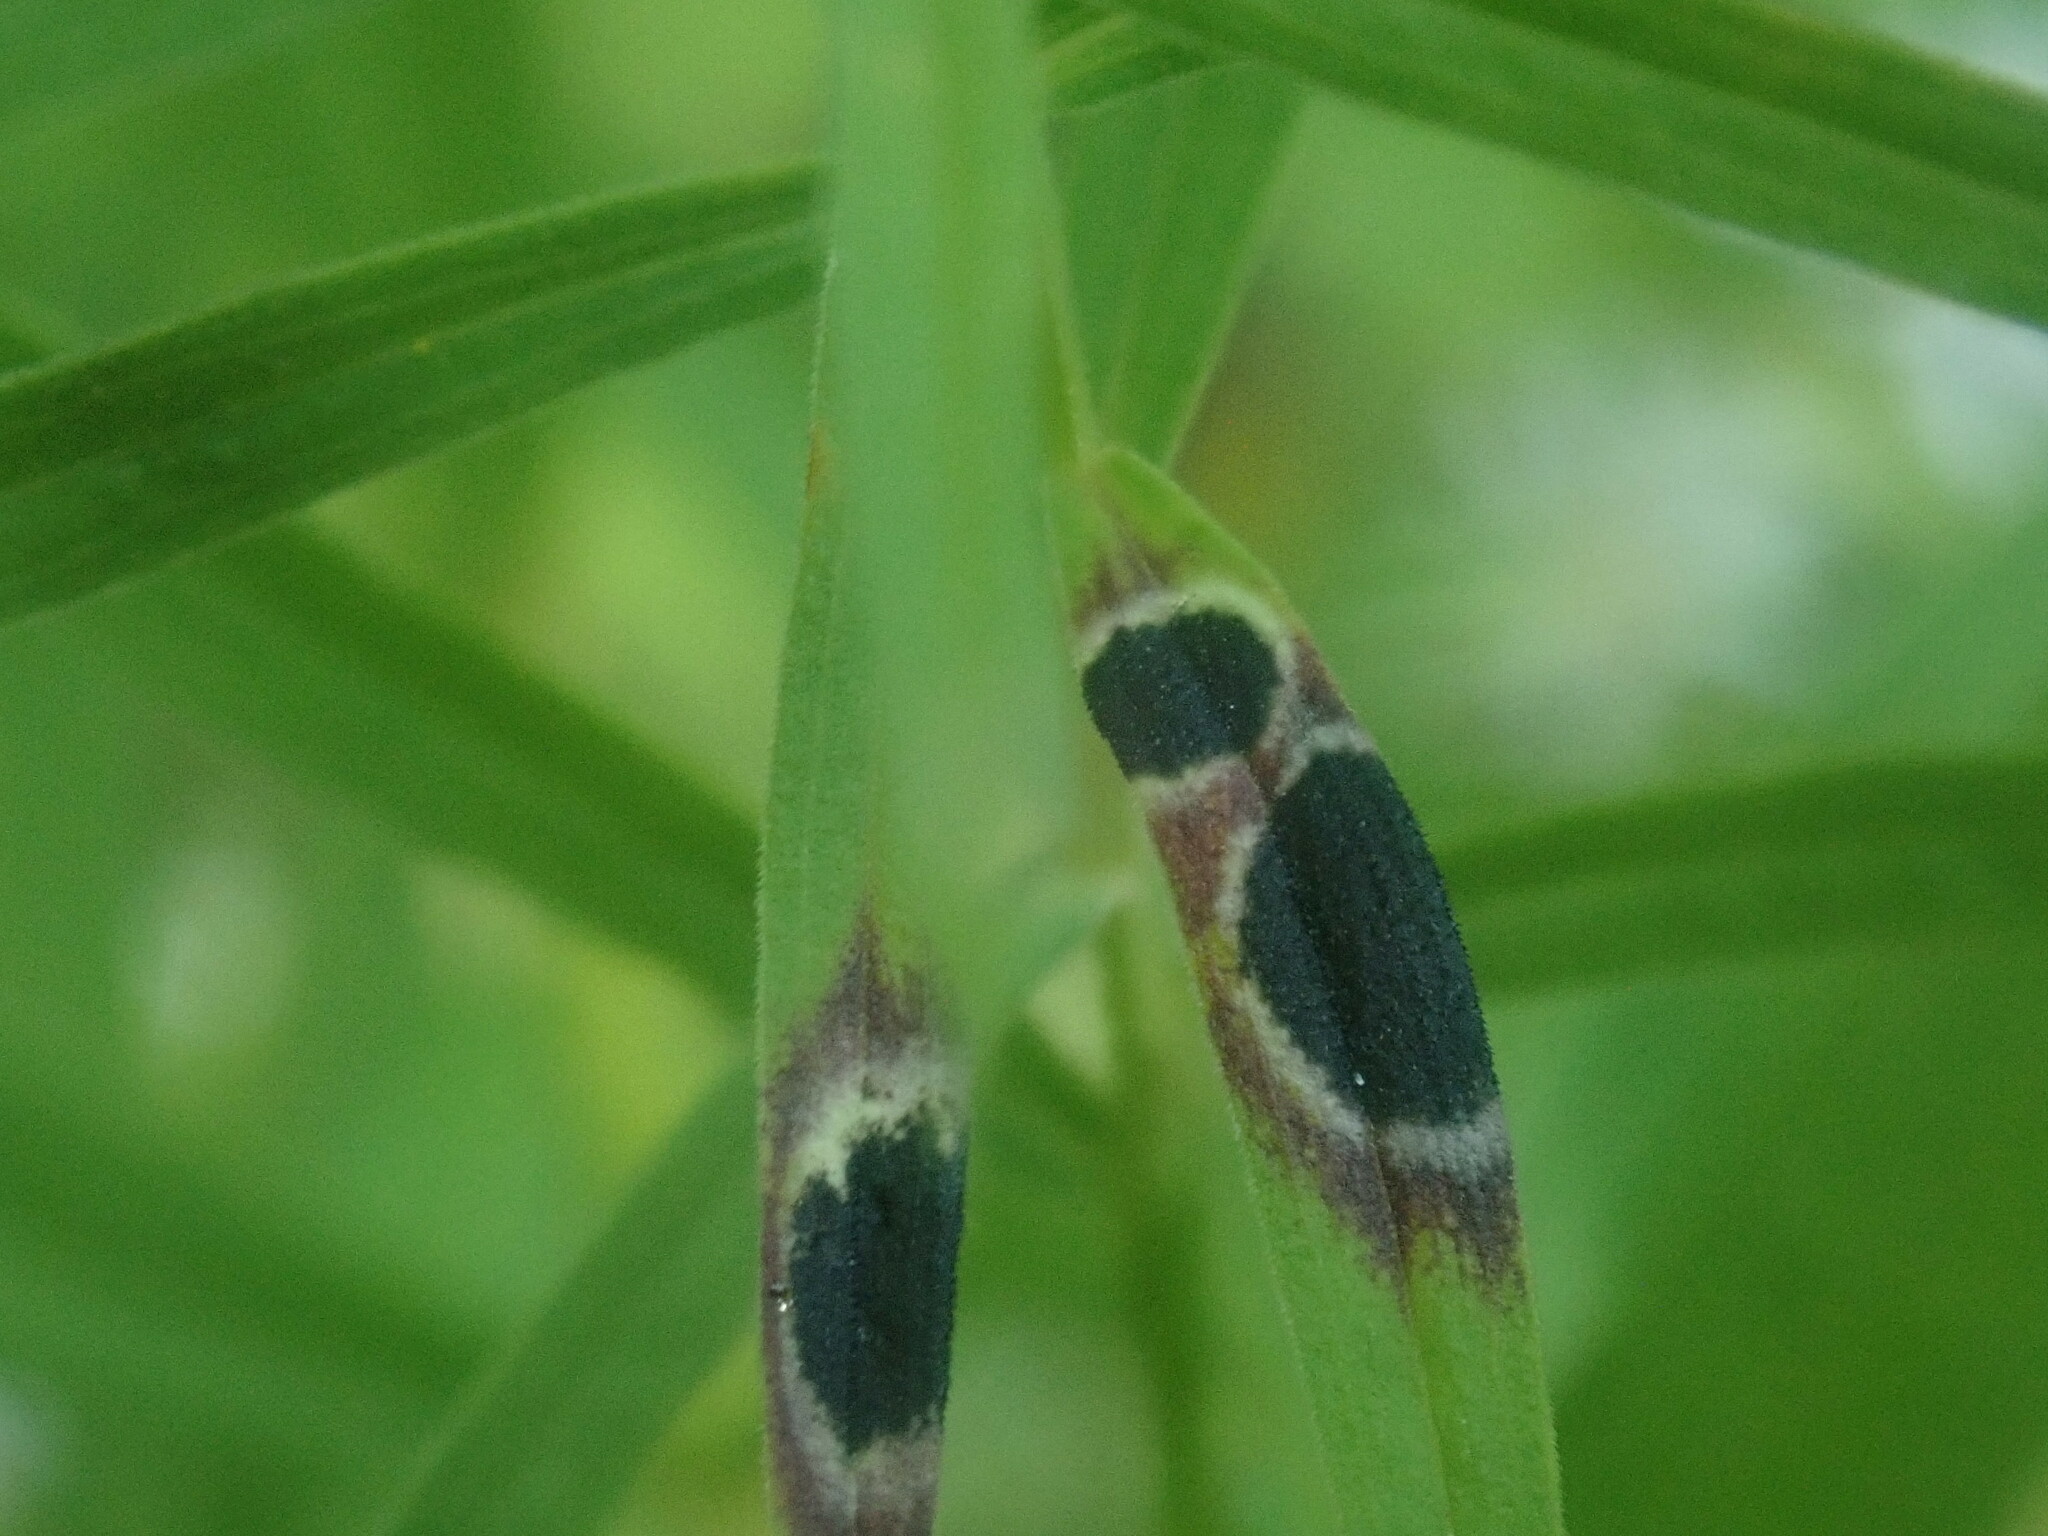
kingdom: Animalia
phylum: Arthropoda
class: Insecta
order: Diptera
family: Cecidomyiidae
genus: Asteromyia
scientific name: Asteromyia euthamiae
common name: Euthamia leaf gall midge
